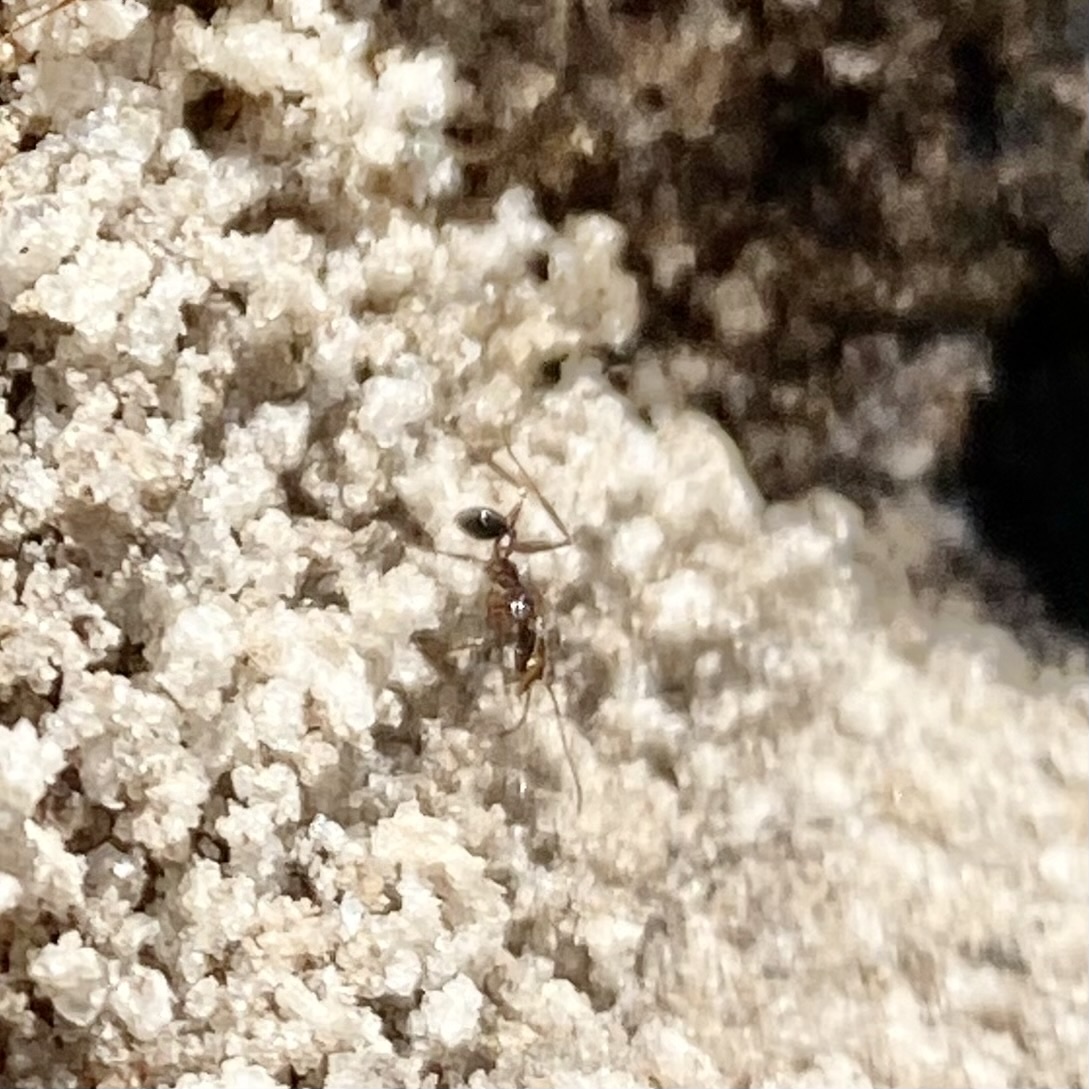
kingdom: Animalia
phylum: Arthropoda
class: Insecta
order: Hymenoptera
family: Formicidae
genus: Pheidole
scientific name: Pheidole obscurithorax
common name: Obscure big-headed ant
